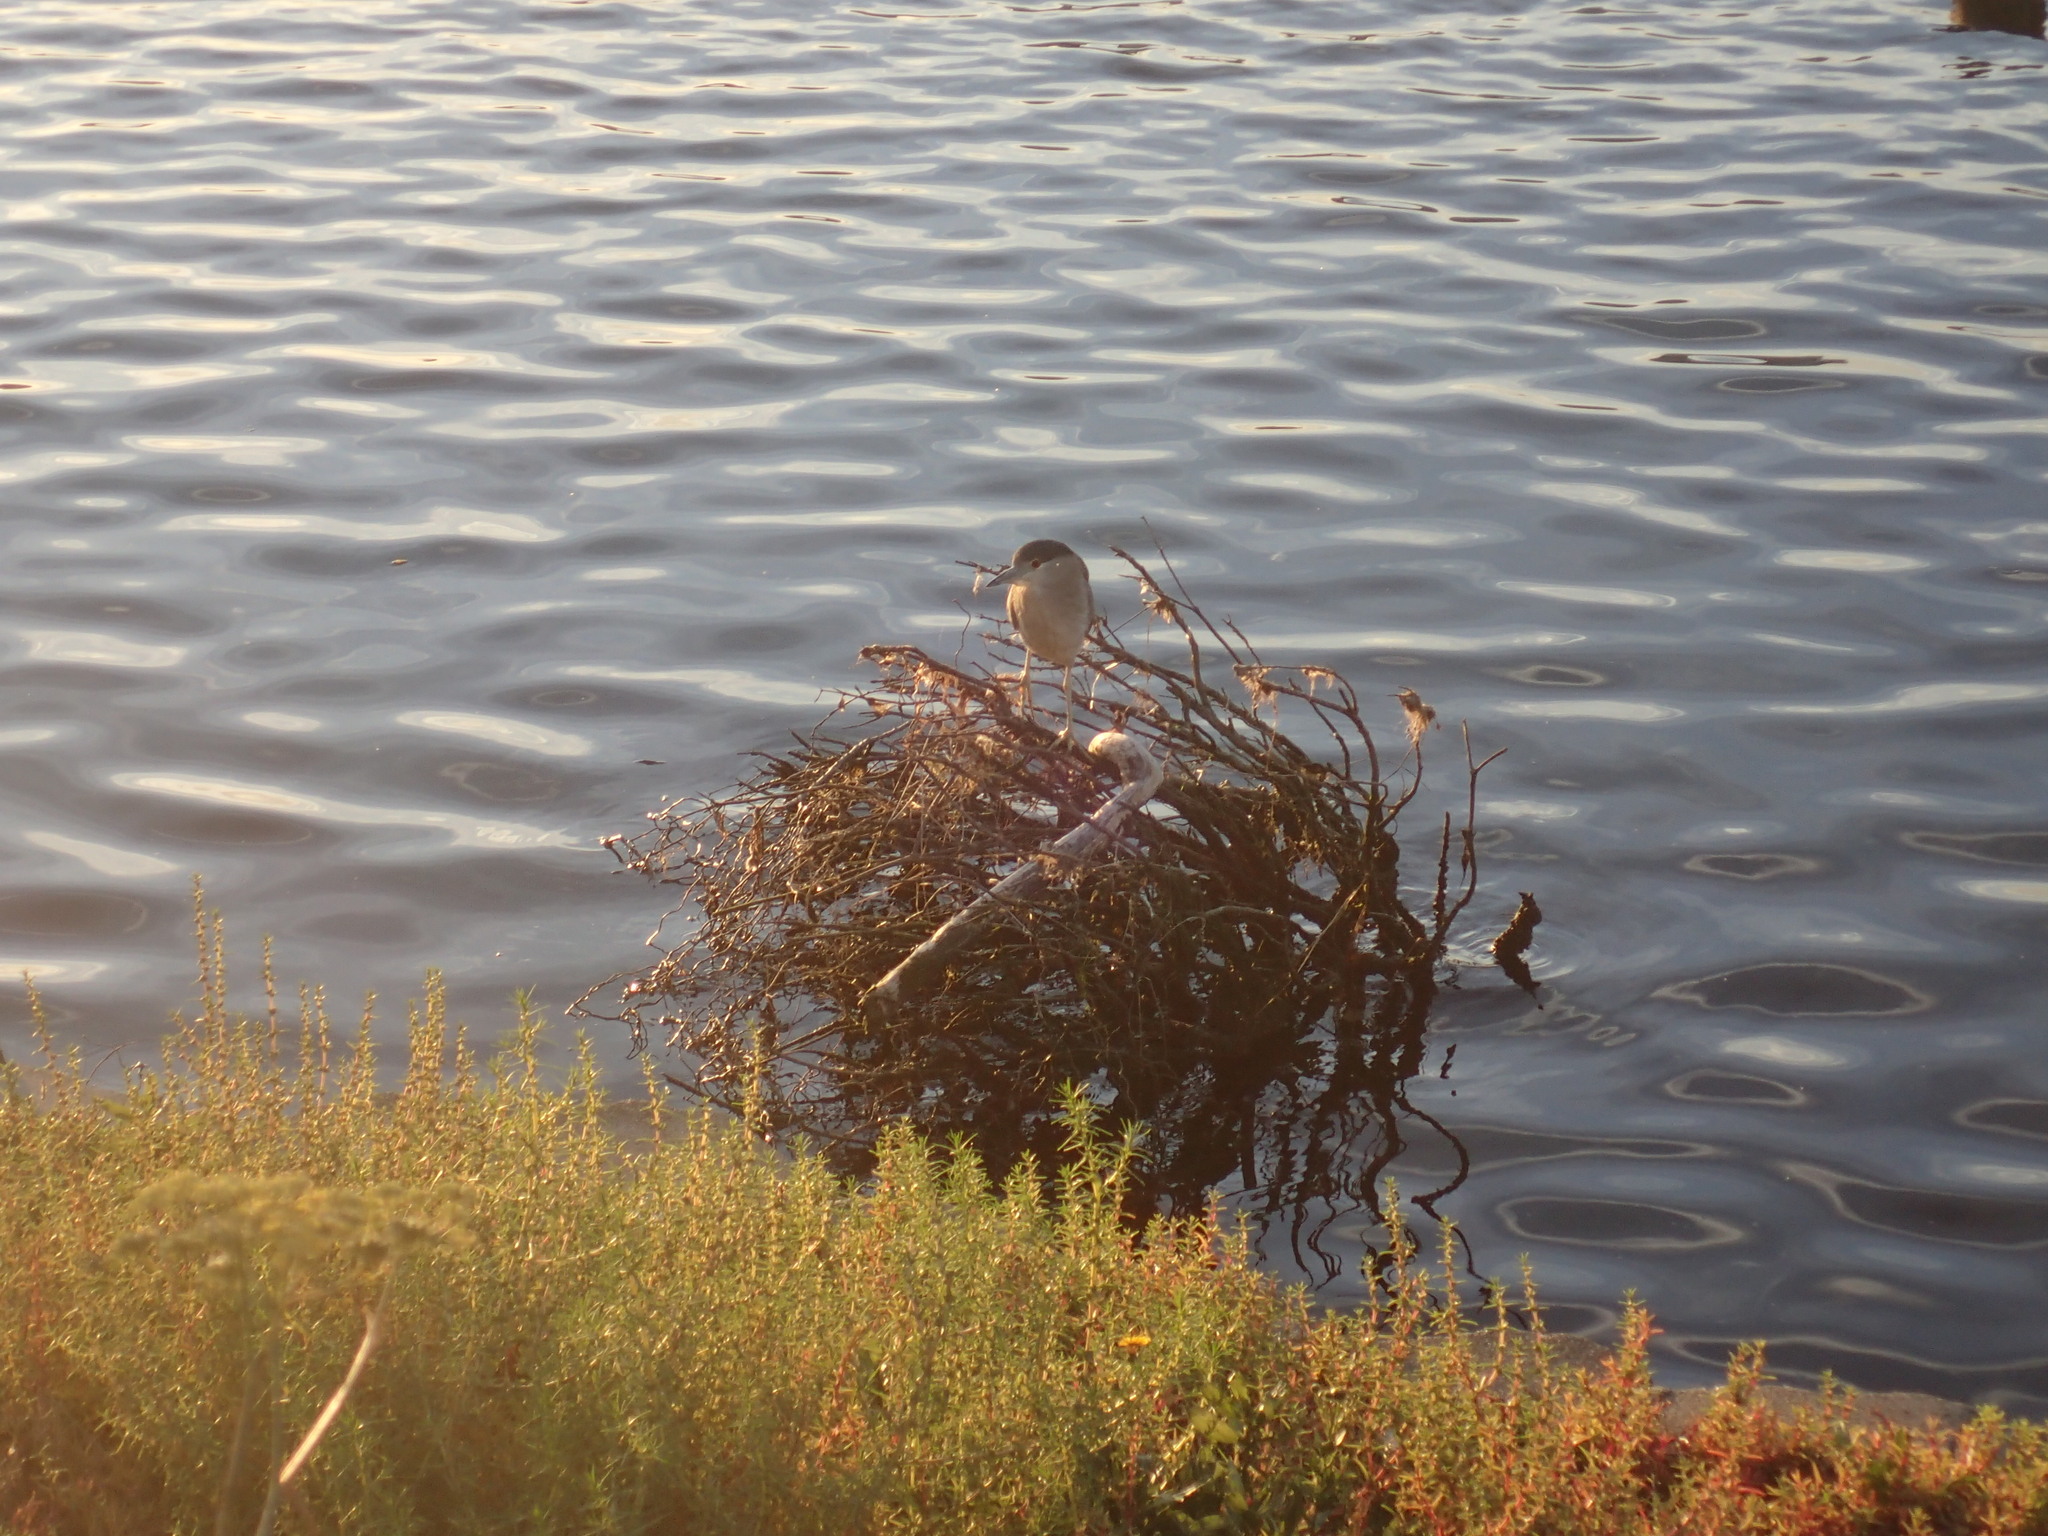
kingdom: Animalia
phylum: Chordata
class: Aves
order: Pelecaniformes
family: Ardeidae
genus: Nycticorax
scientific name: Nycticorax nycticorax
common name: Black-crowned night heron
